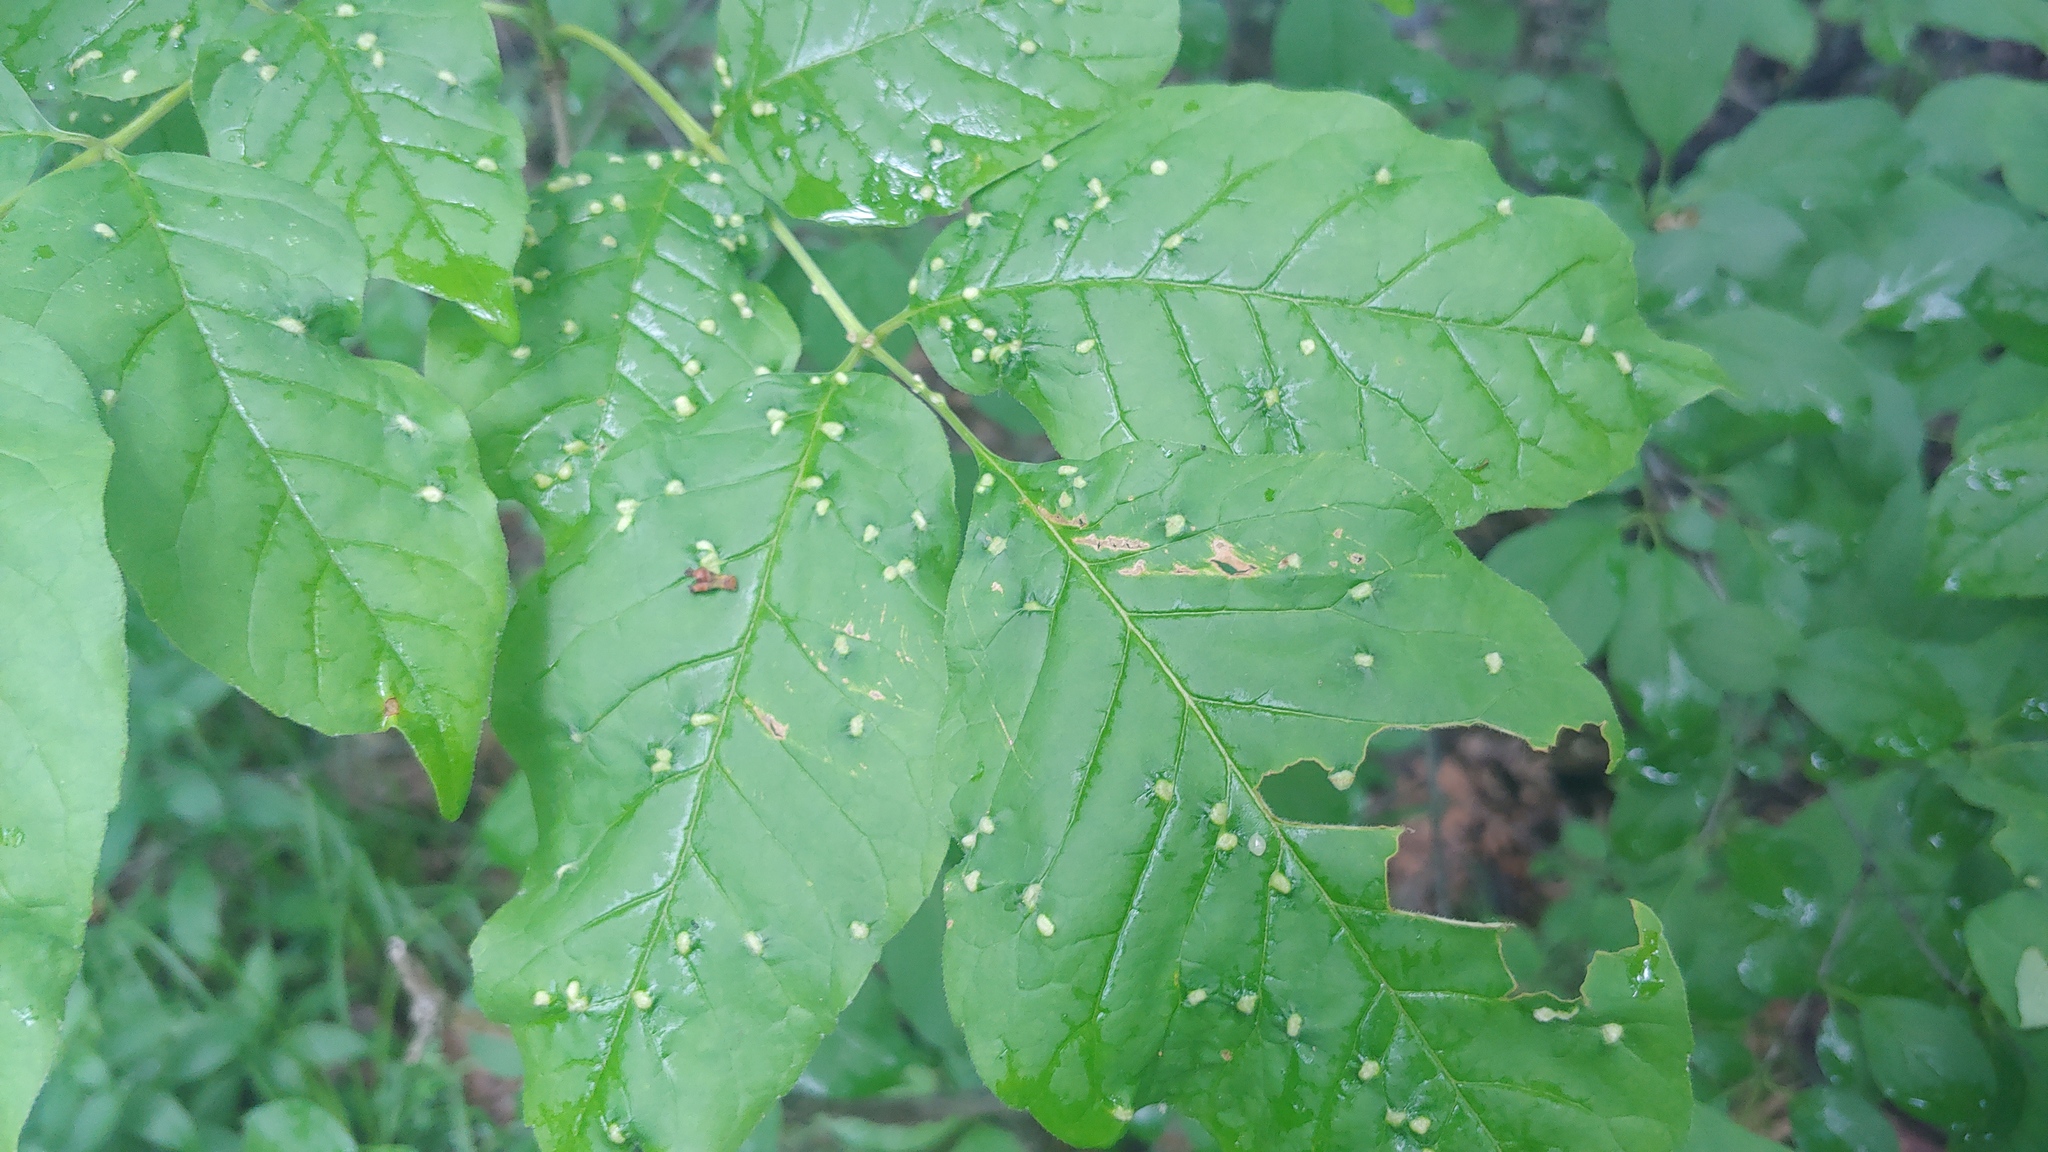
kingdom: Animalia
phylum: Arthropoda
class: Arachnida
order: Trombidiformes
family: Eriophyidae
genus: Aceria
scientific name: Aceria fraxinicola
